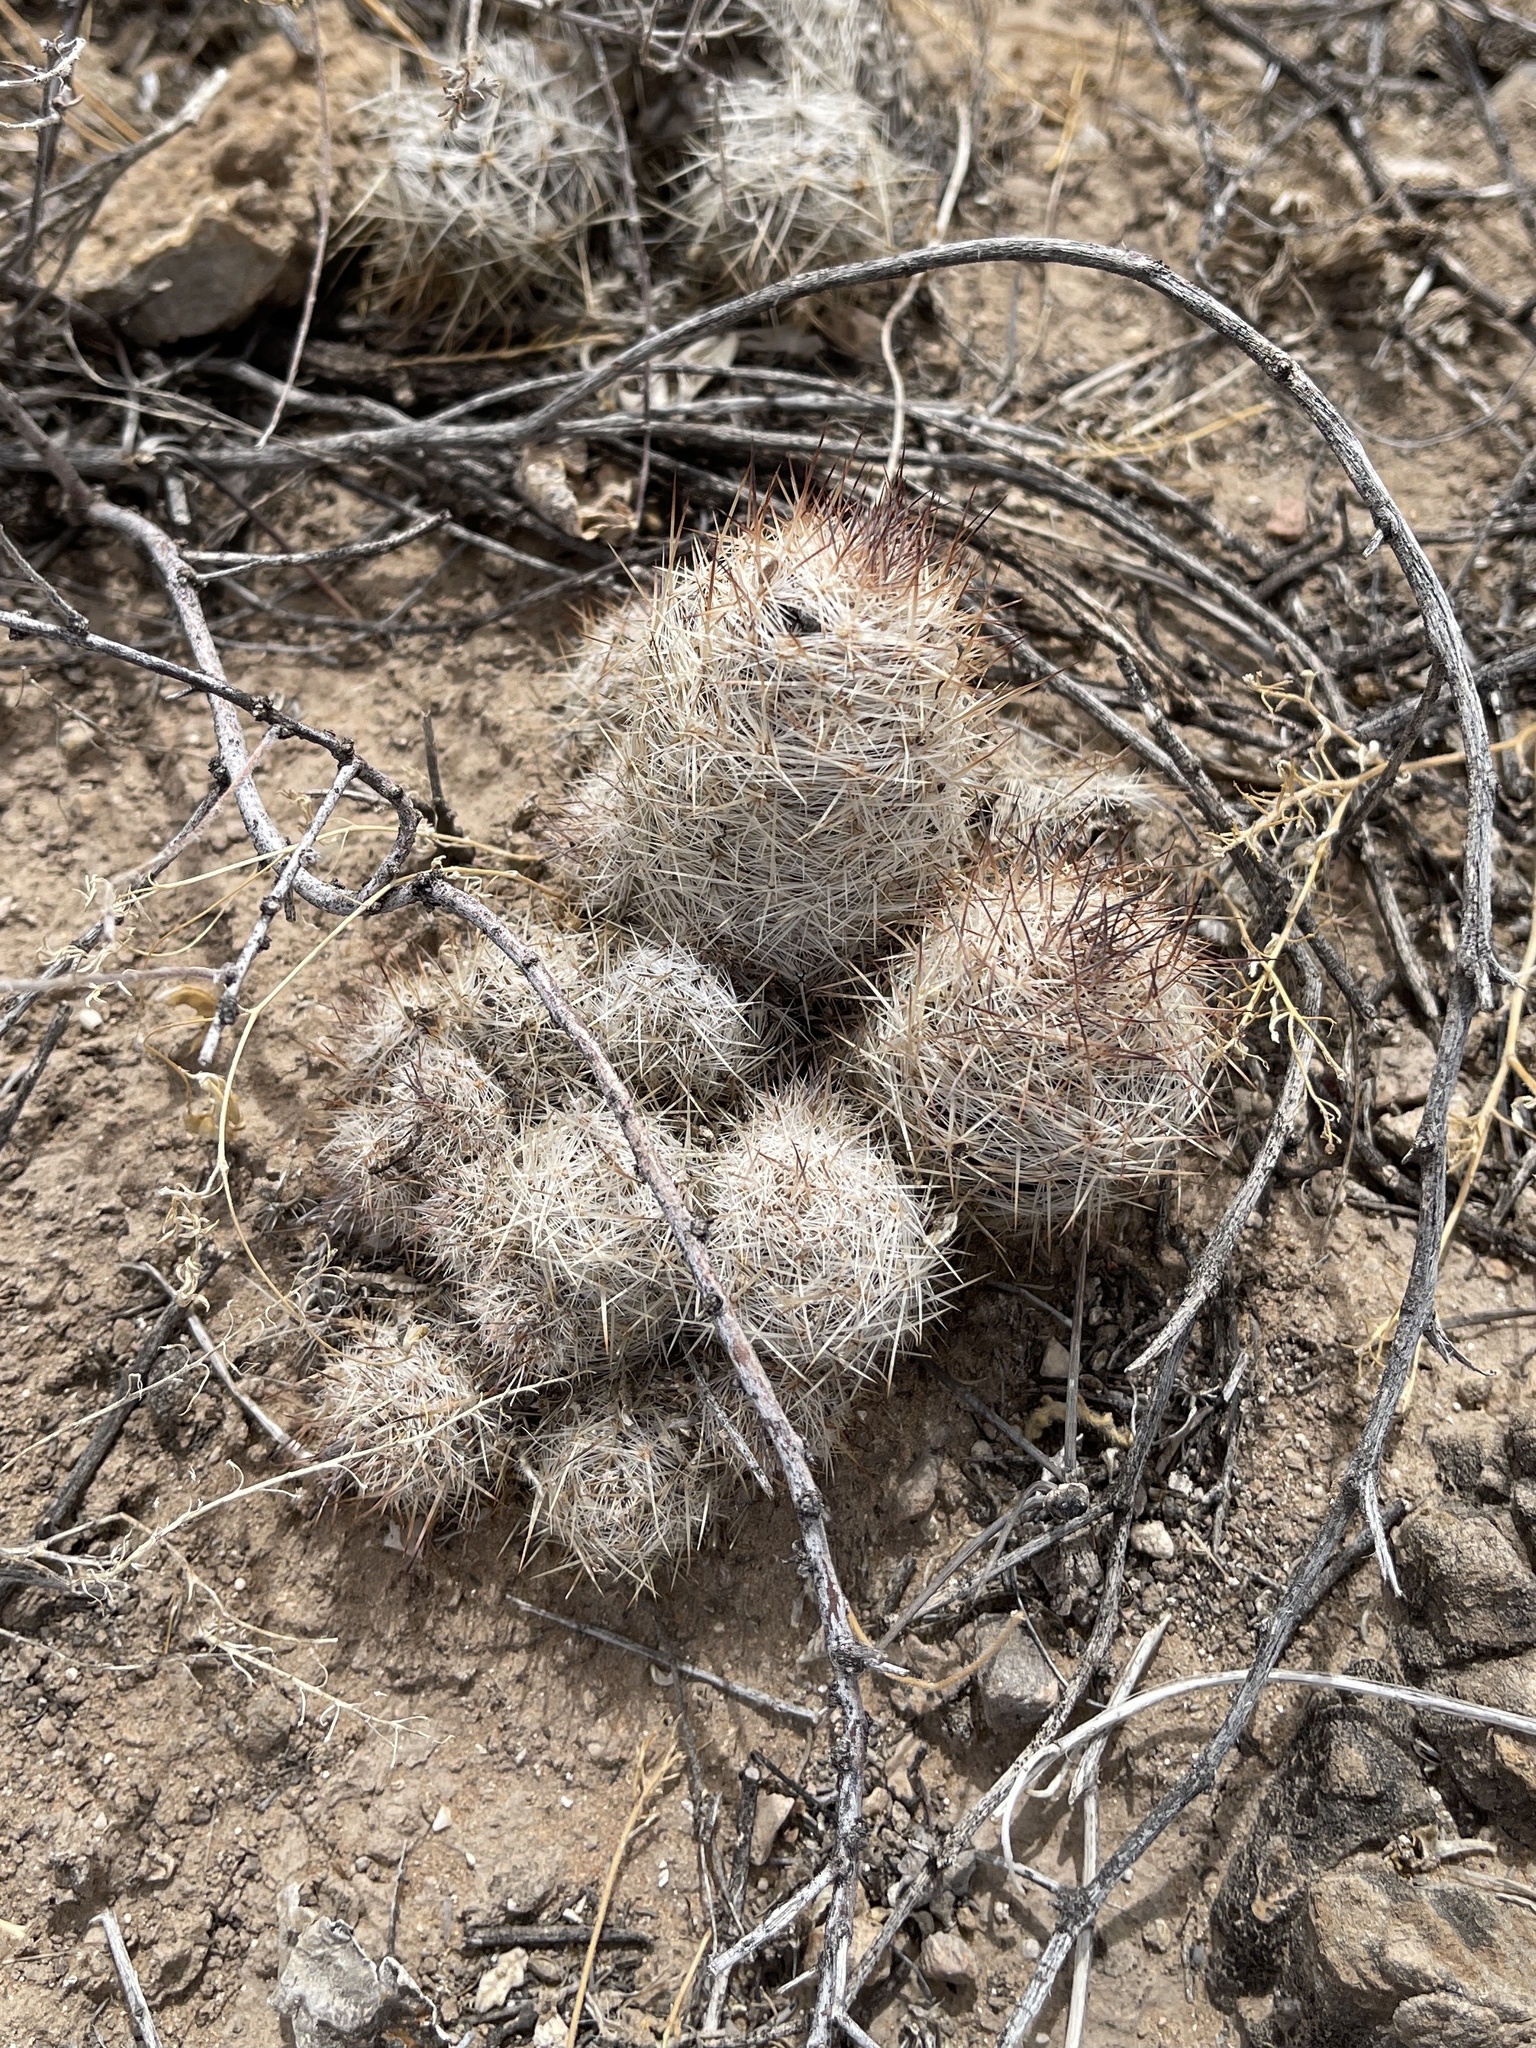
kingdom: Plantae
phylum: Tracheophyta
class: Magnoliopsida
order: Caryophyllales
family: Cactaceae
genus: Pelecyphora
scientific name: Pelecyphora tuberculosa
